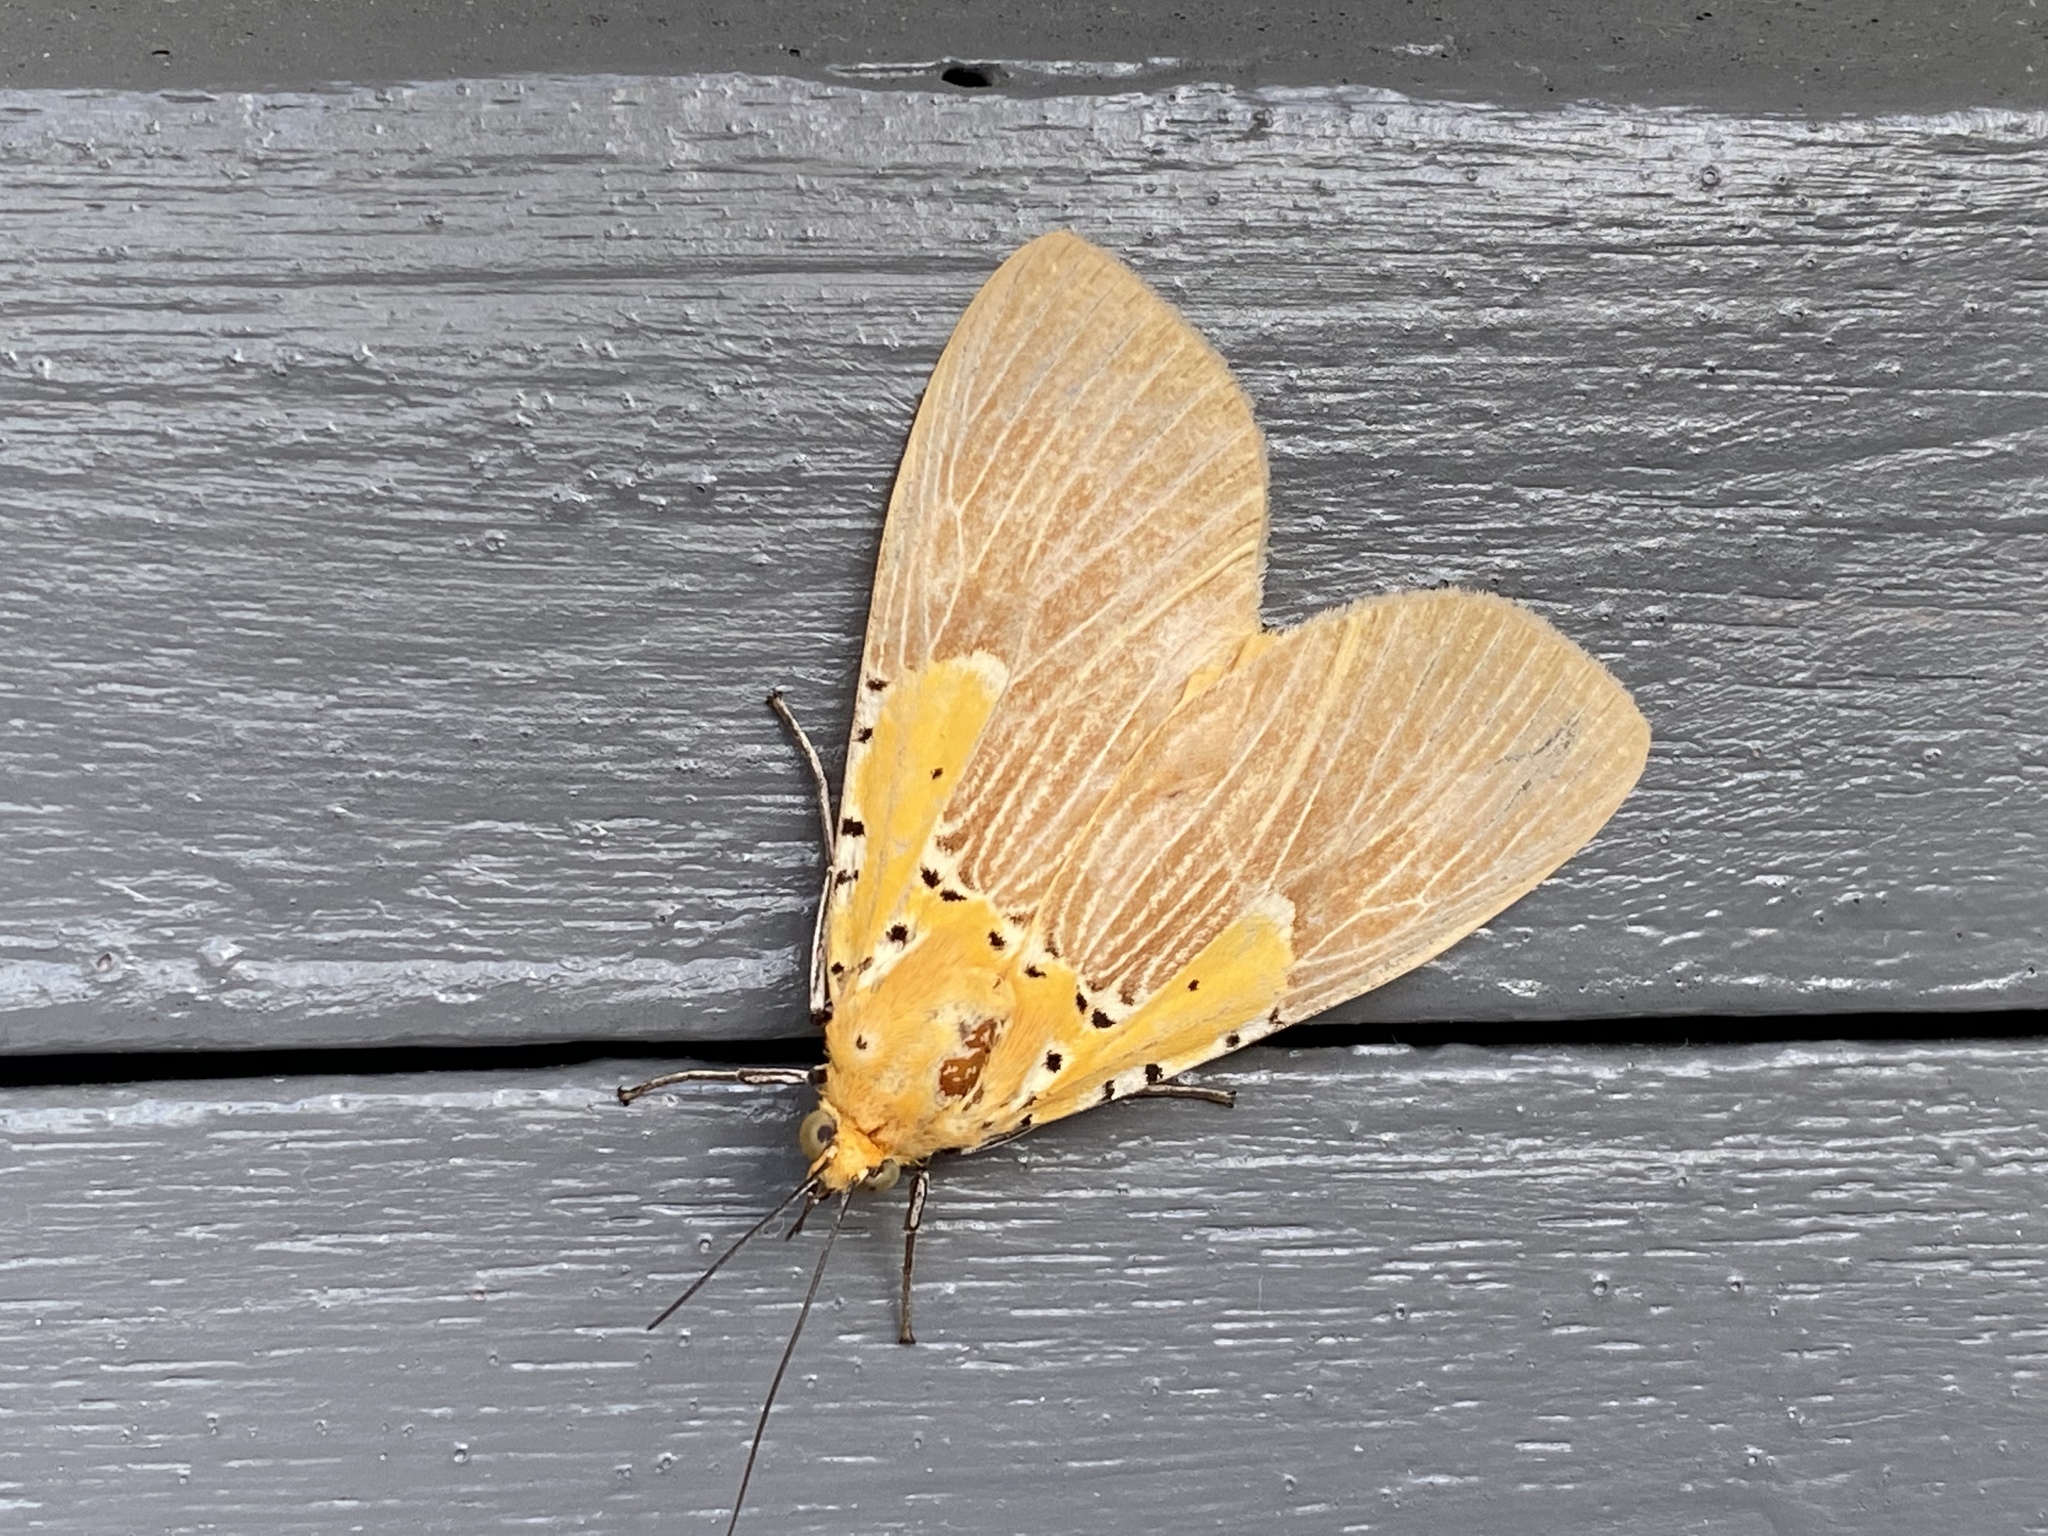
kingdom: Animalia
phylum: Arthropoda
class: Insecta
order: Lepidoptera
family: Erebidae
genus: Asota
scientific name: Asota speciosa
